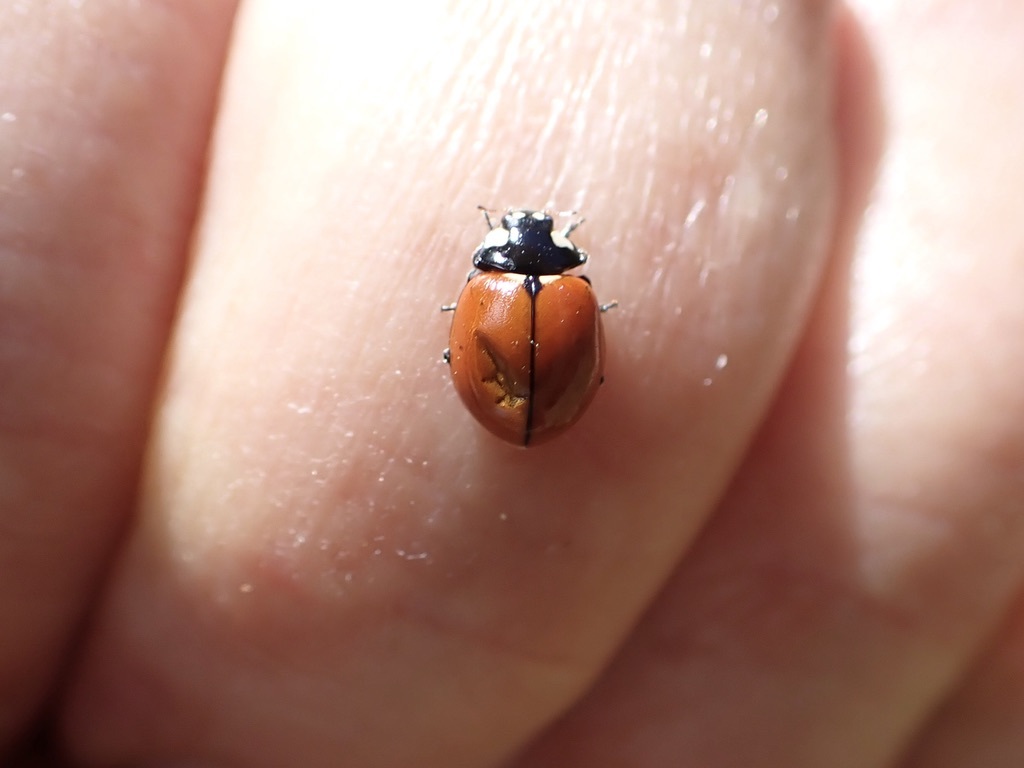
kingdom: Animalia
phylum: Arthropoda
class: Insecta
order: Coleoptera
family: Coccinellidae
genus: Coccinella
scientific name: Coccinella californica
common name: Lady beetle
